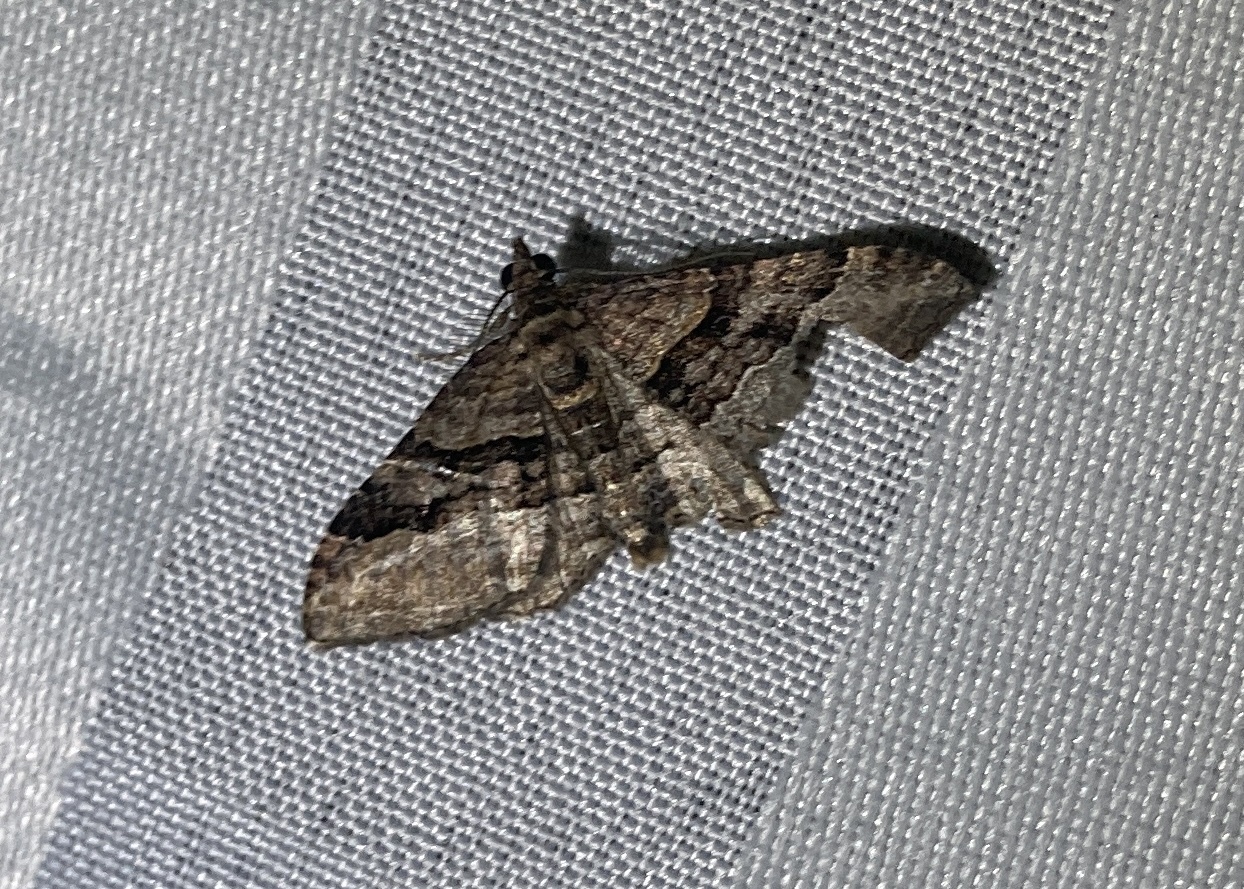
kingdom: Animalia
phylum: Arthropoda
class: Insecta
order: Lepidoptera
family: Geometridae
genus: Epyaxa
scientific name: Epyaxa lucidata
